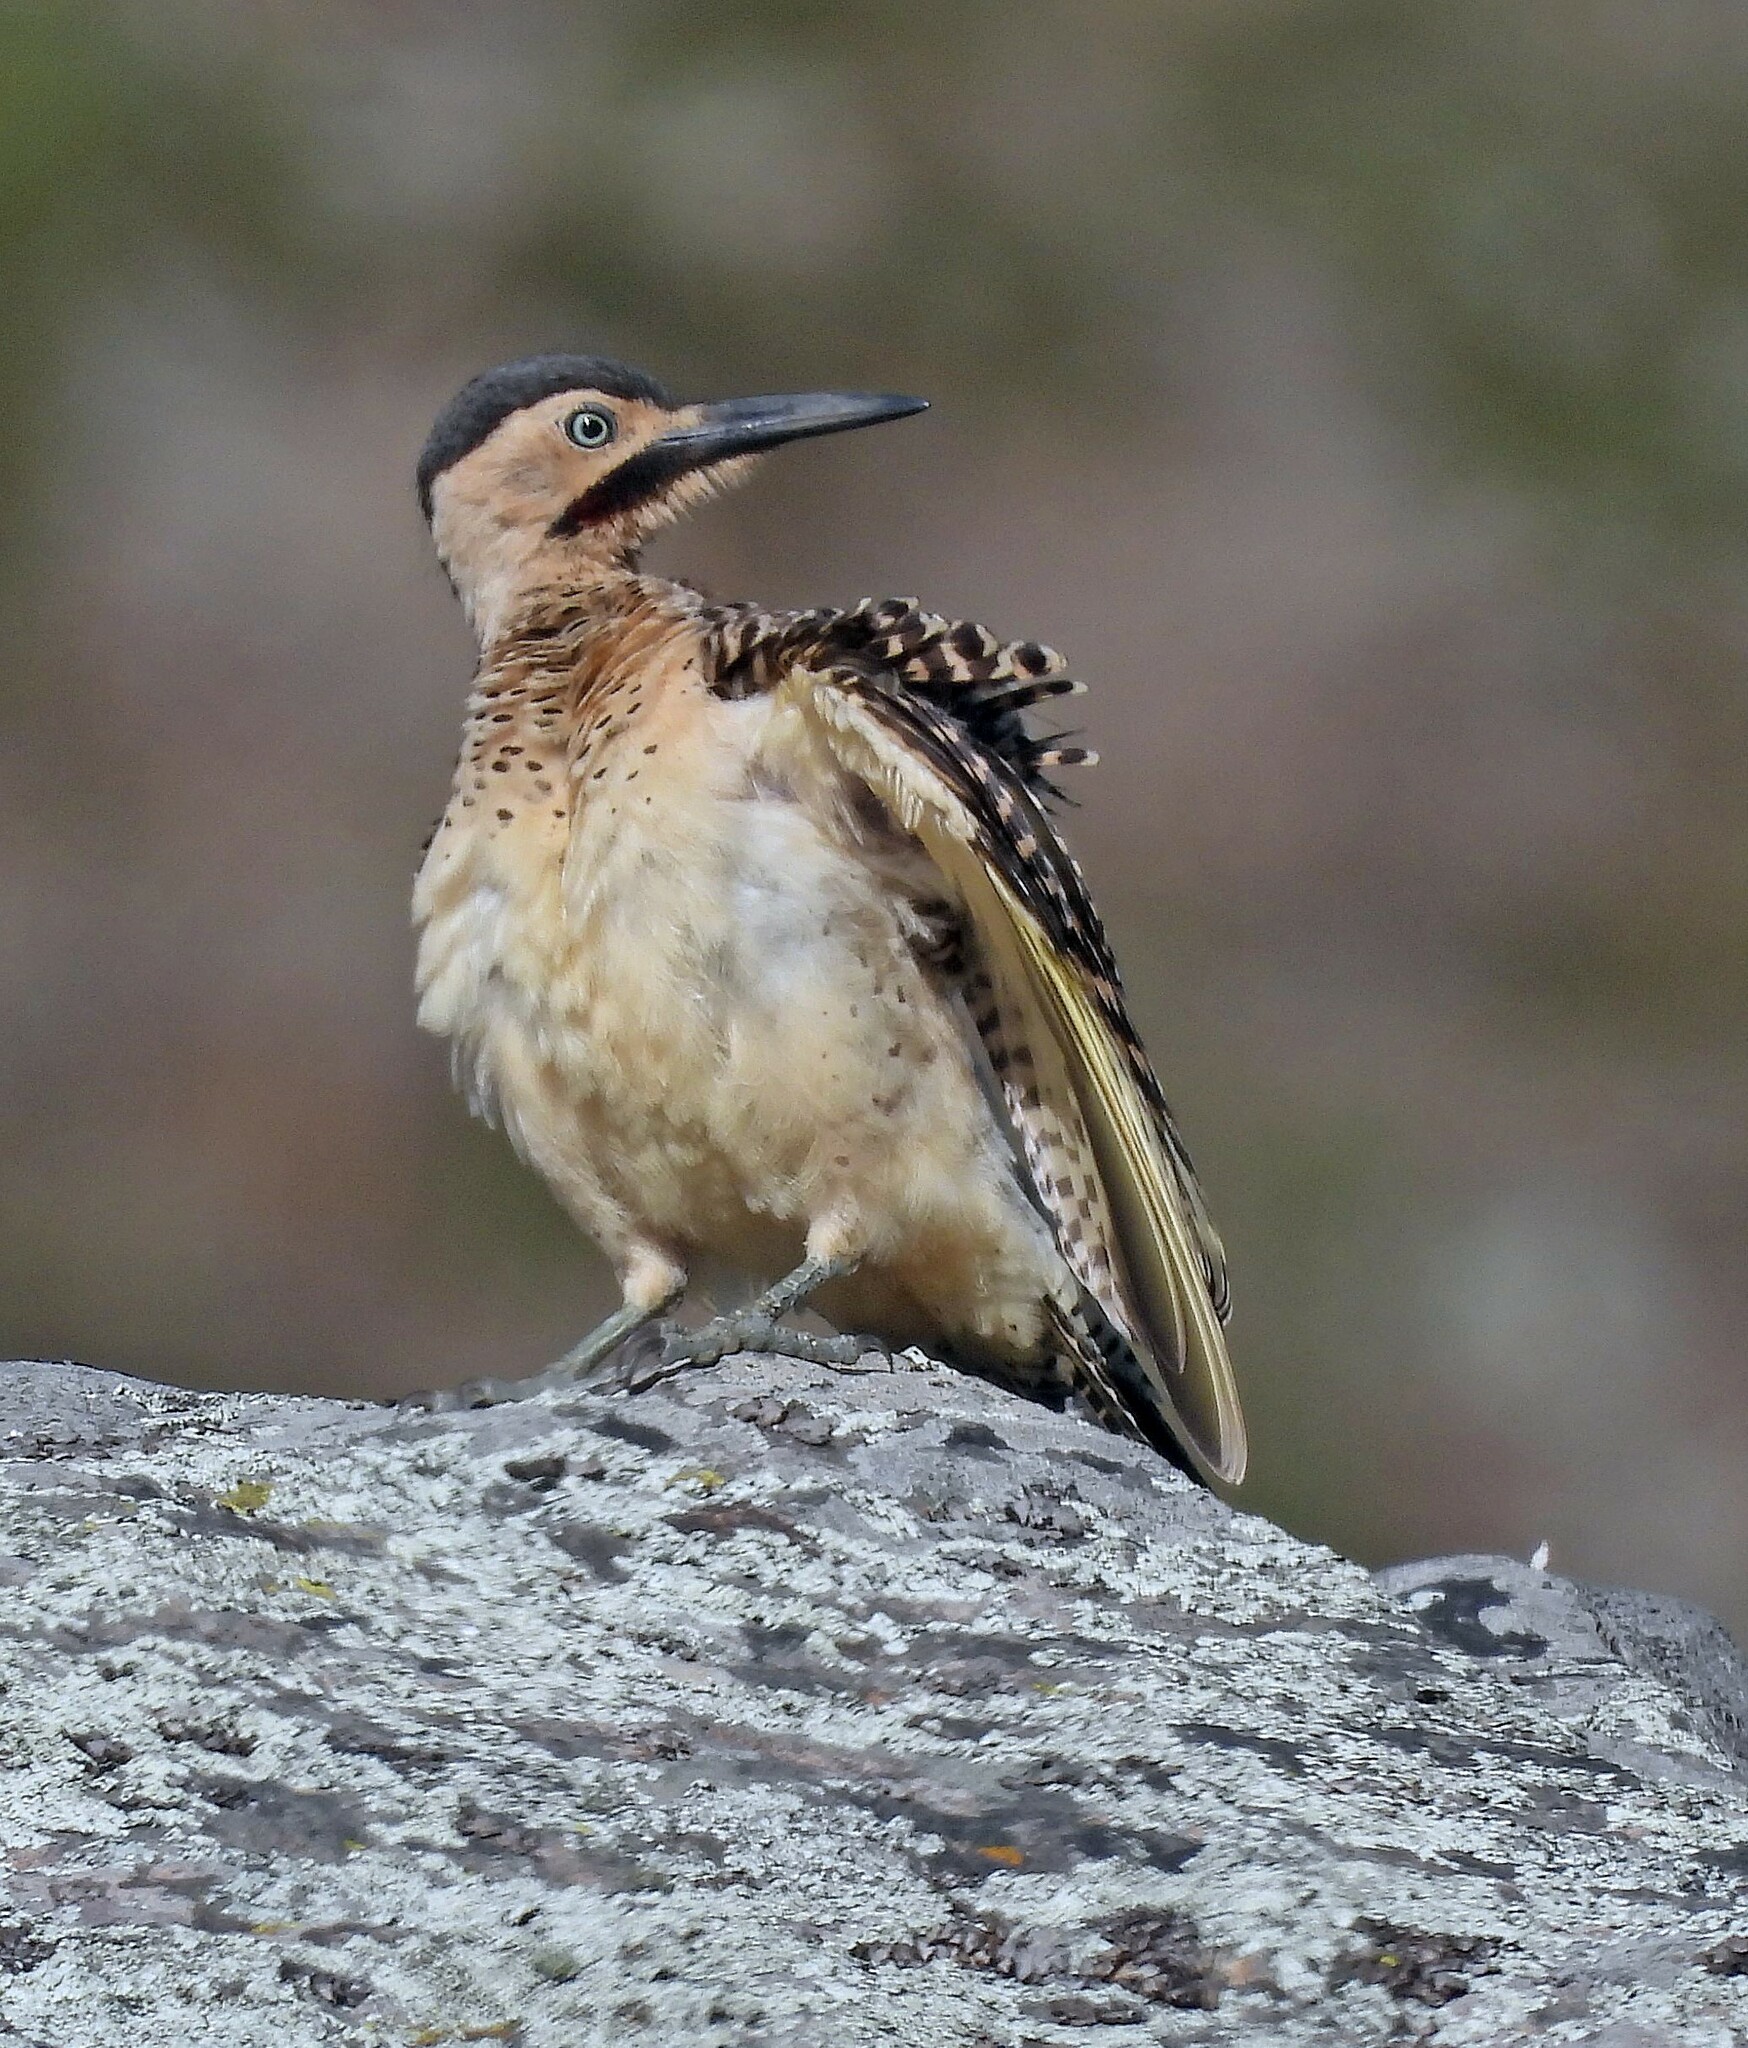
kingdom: Animalia
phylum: Chordata
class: Aves
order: Piciformes
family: Picidae
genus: Colaptes
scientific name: Colaptes rupicola
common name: Andean flicker
